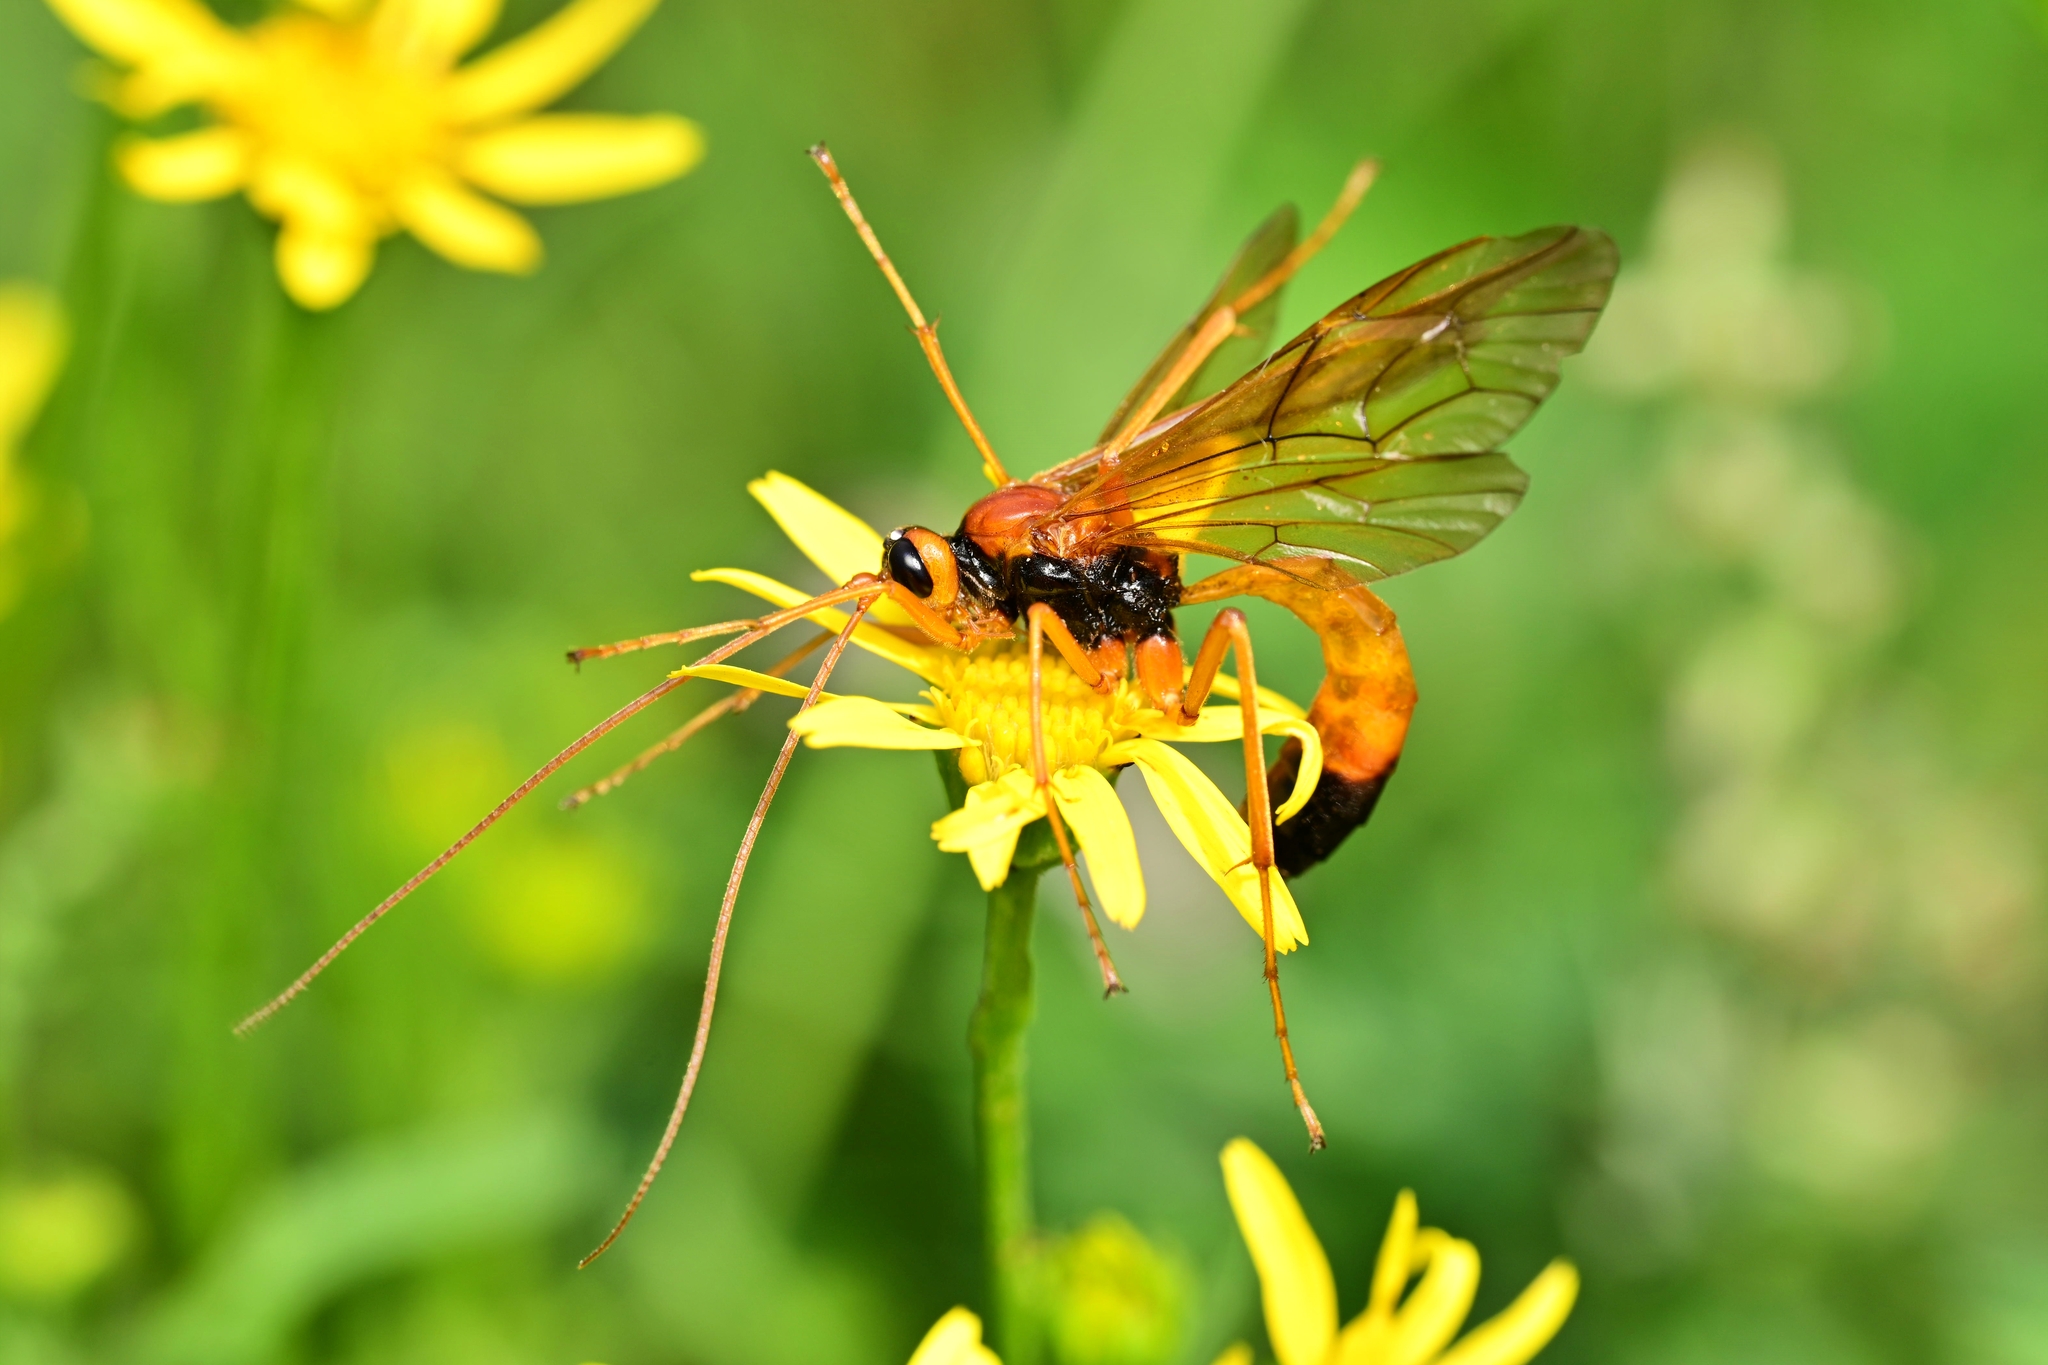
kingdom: Animalia
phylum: Arthropoda
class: Insecta
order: Hymenoptera
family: Ichneumonidae
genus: Opheltes
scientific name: Opheltes glaucopterus
